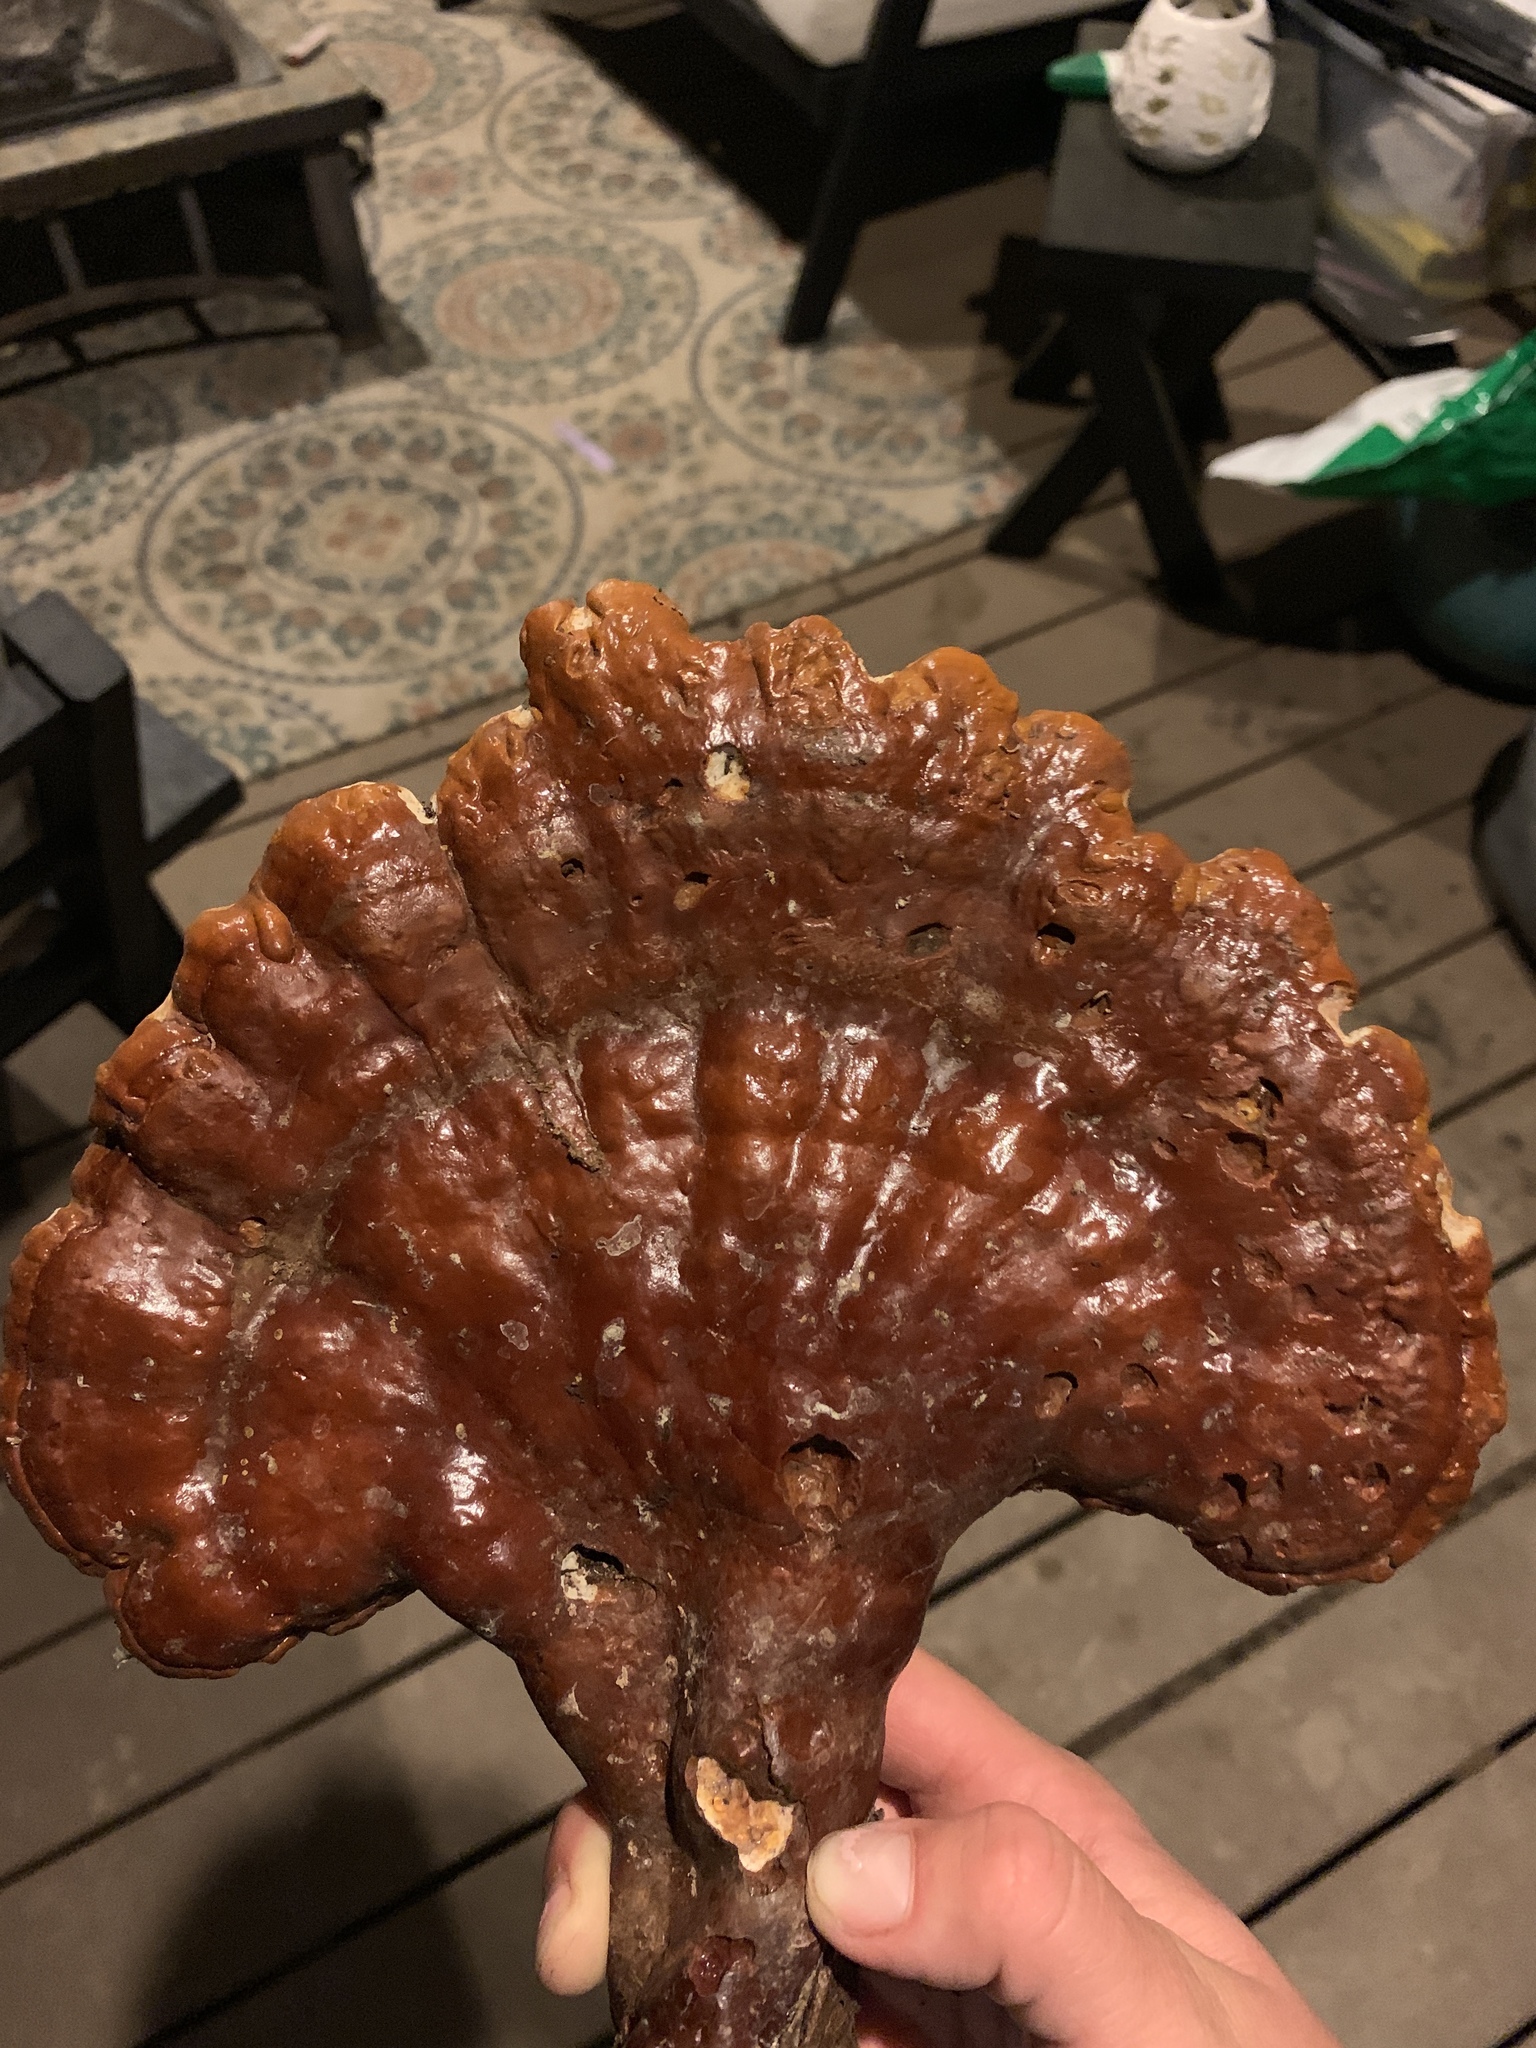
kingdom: Fungi
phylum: Basidiomycota
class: Agaricomycetes
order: Polyporales
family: Polyporaceae
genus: Ganoderma
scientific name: Ganoderma tsugae
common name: Hemlock varnish shelf
